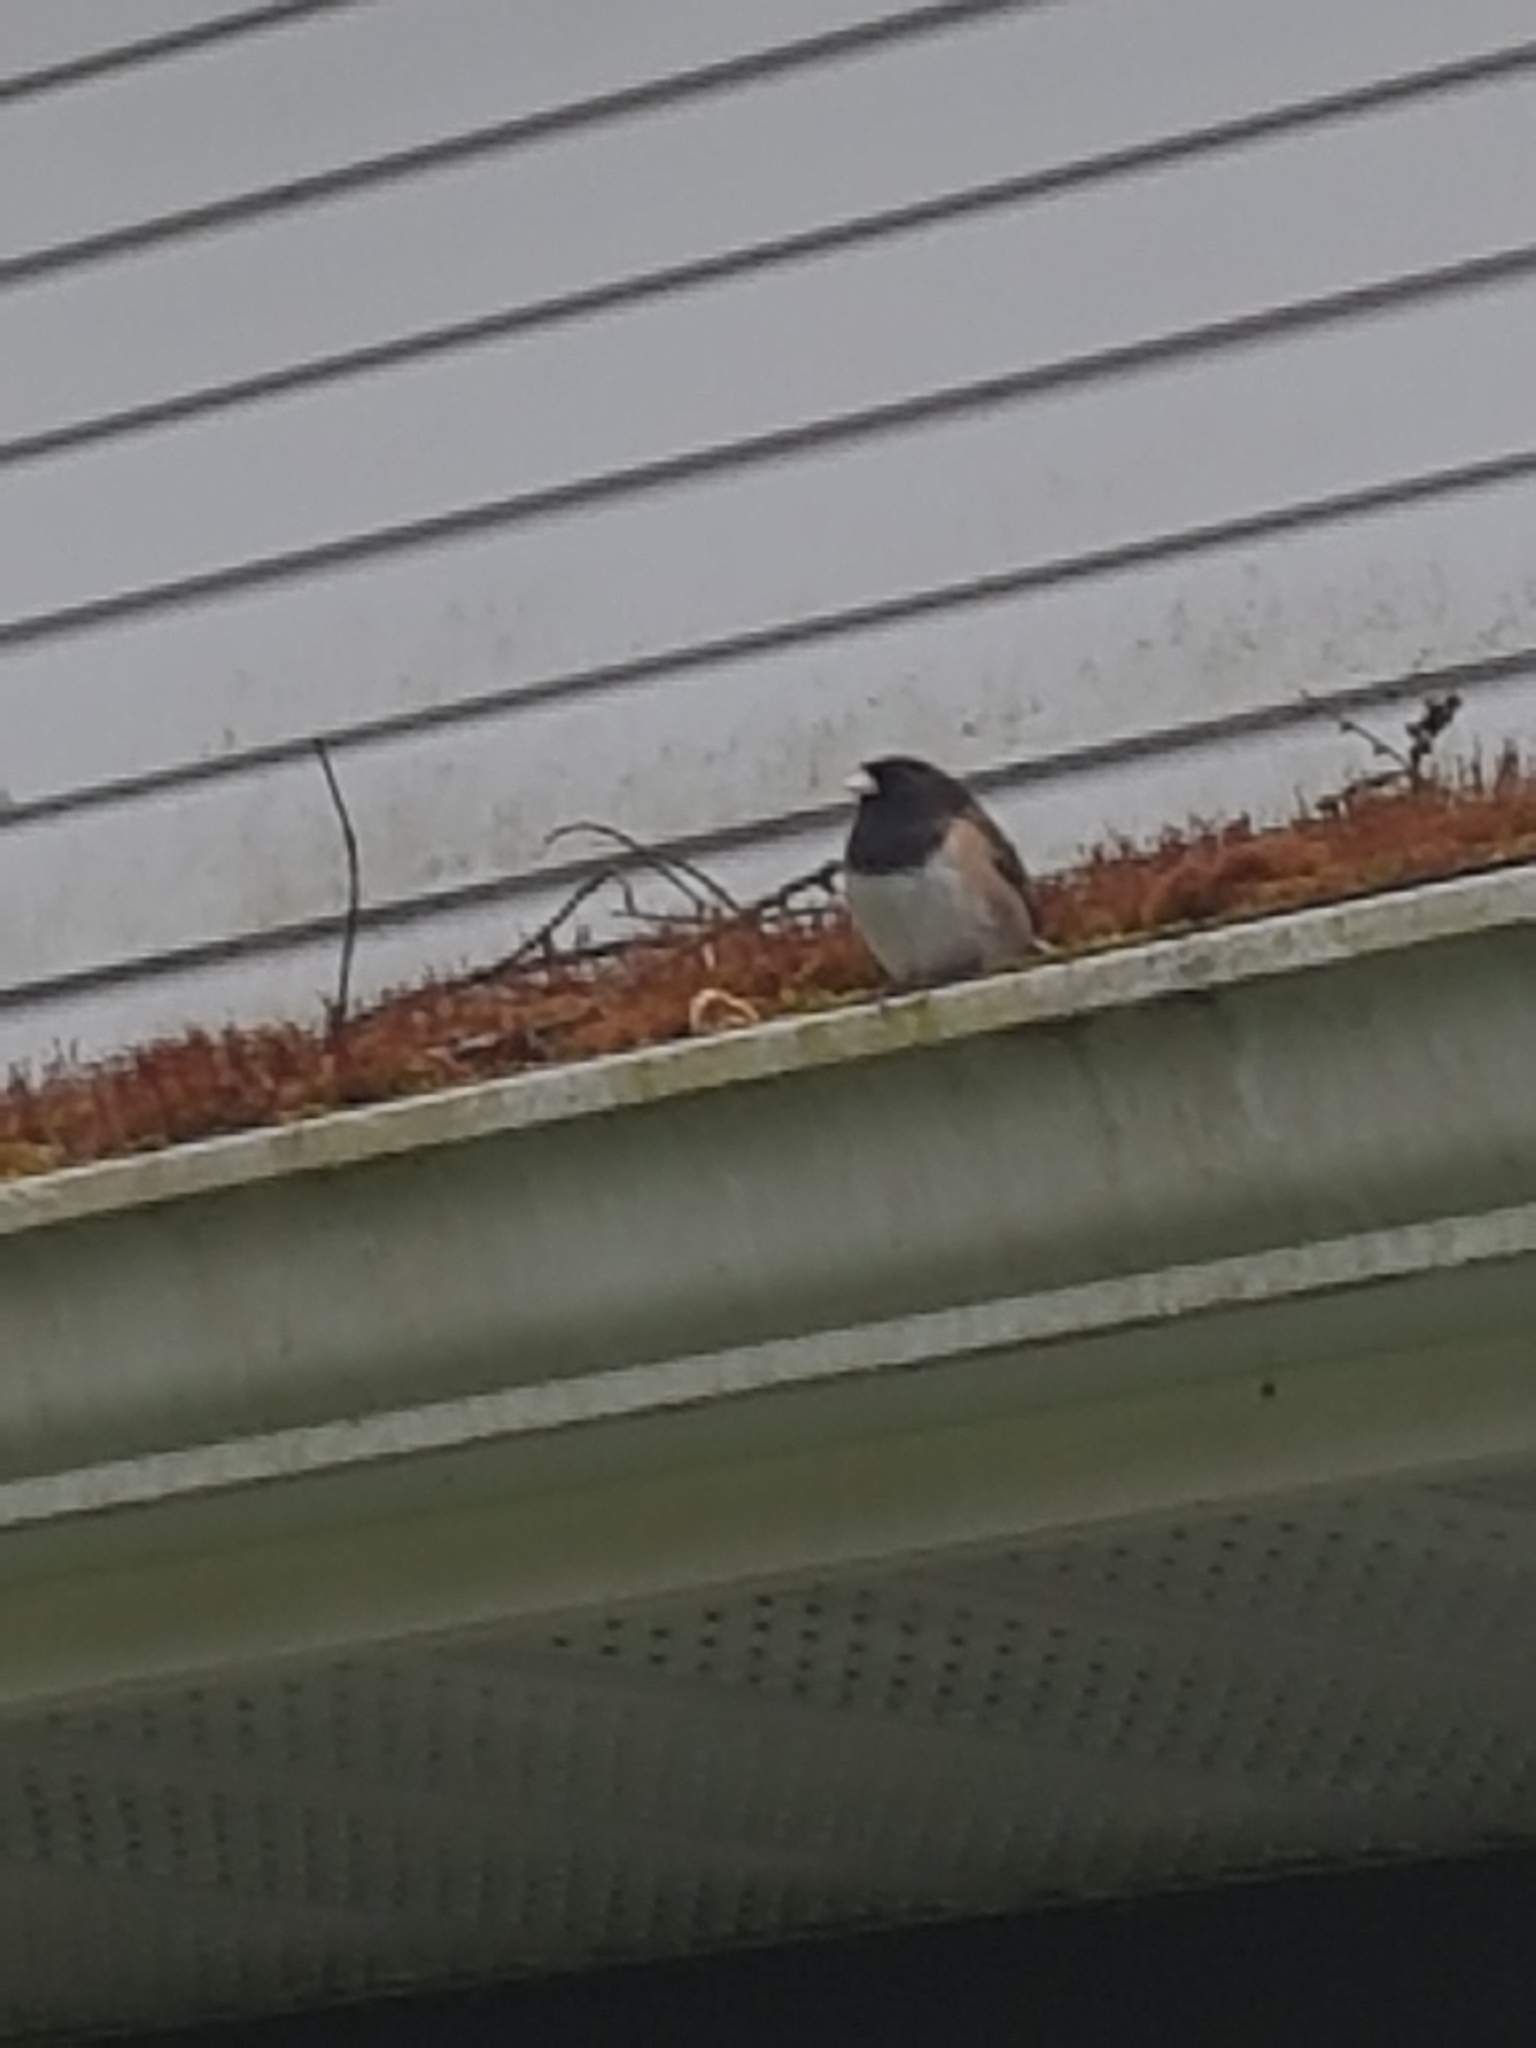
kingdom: Animalia
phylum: Chordata
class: Aves
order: Passeriformes
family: Passerellidae
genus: Junco
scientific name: Junco hyemalis
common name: Dark-eyed junco
